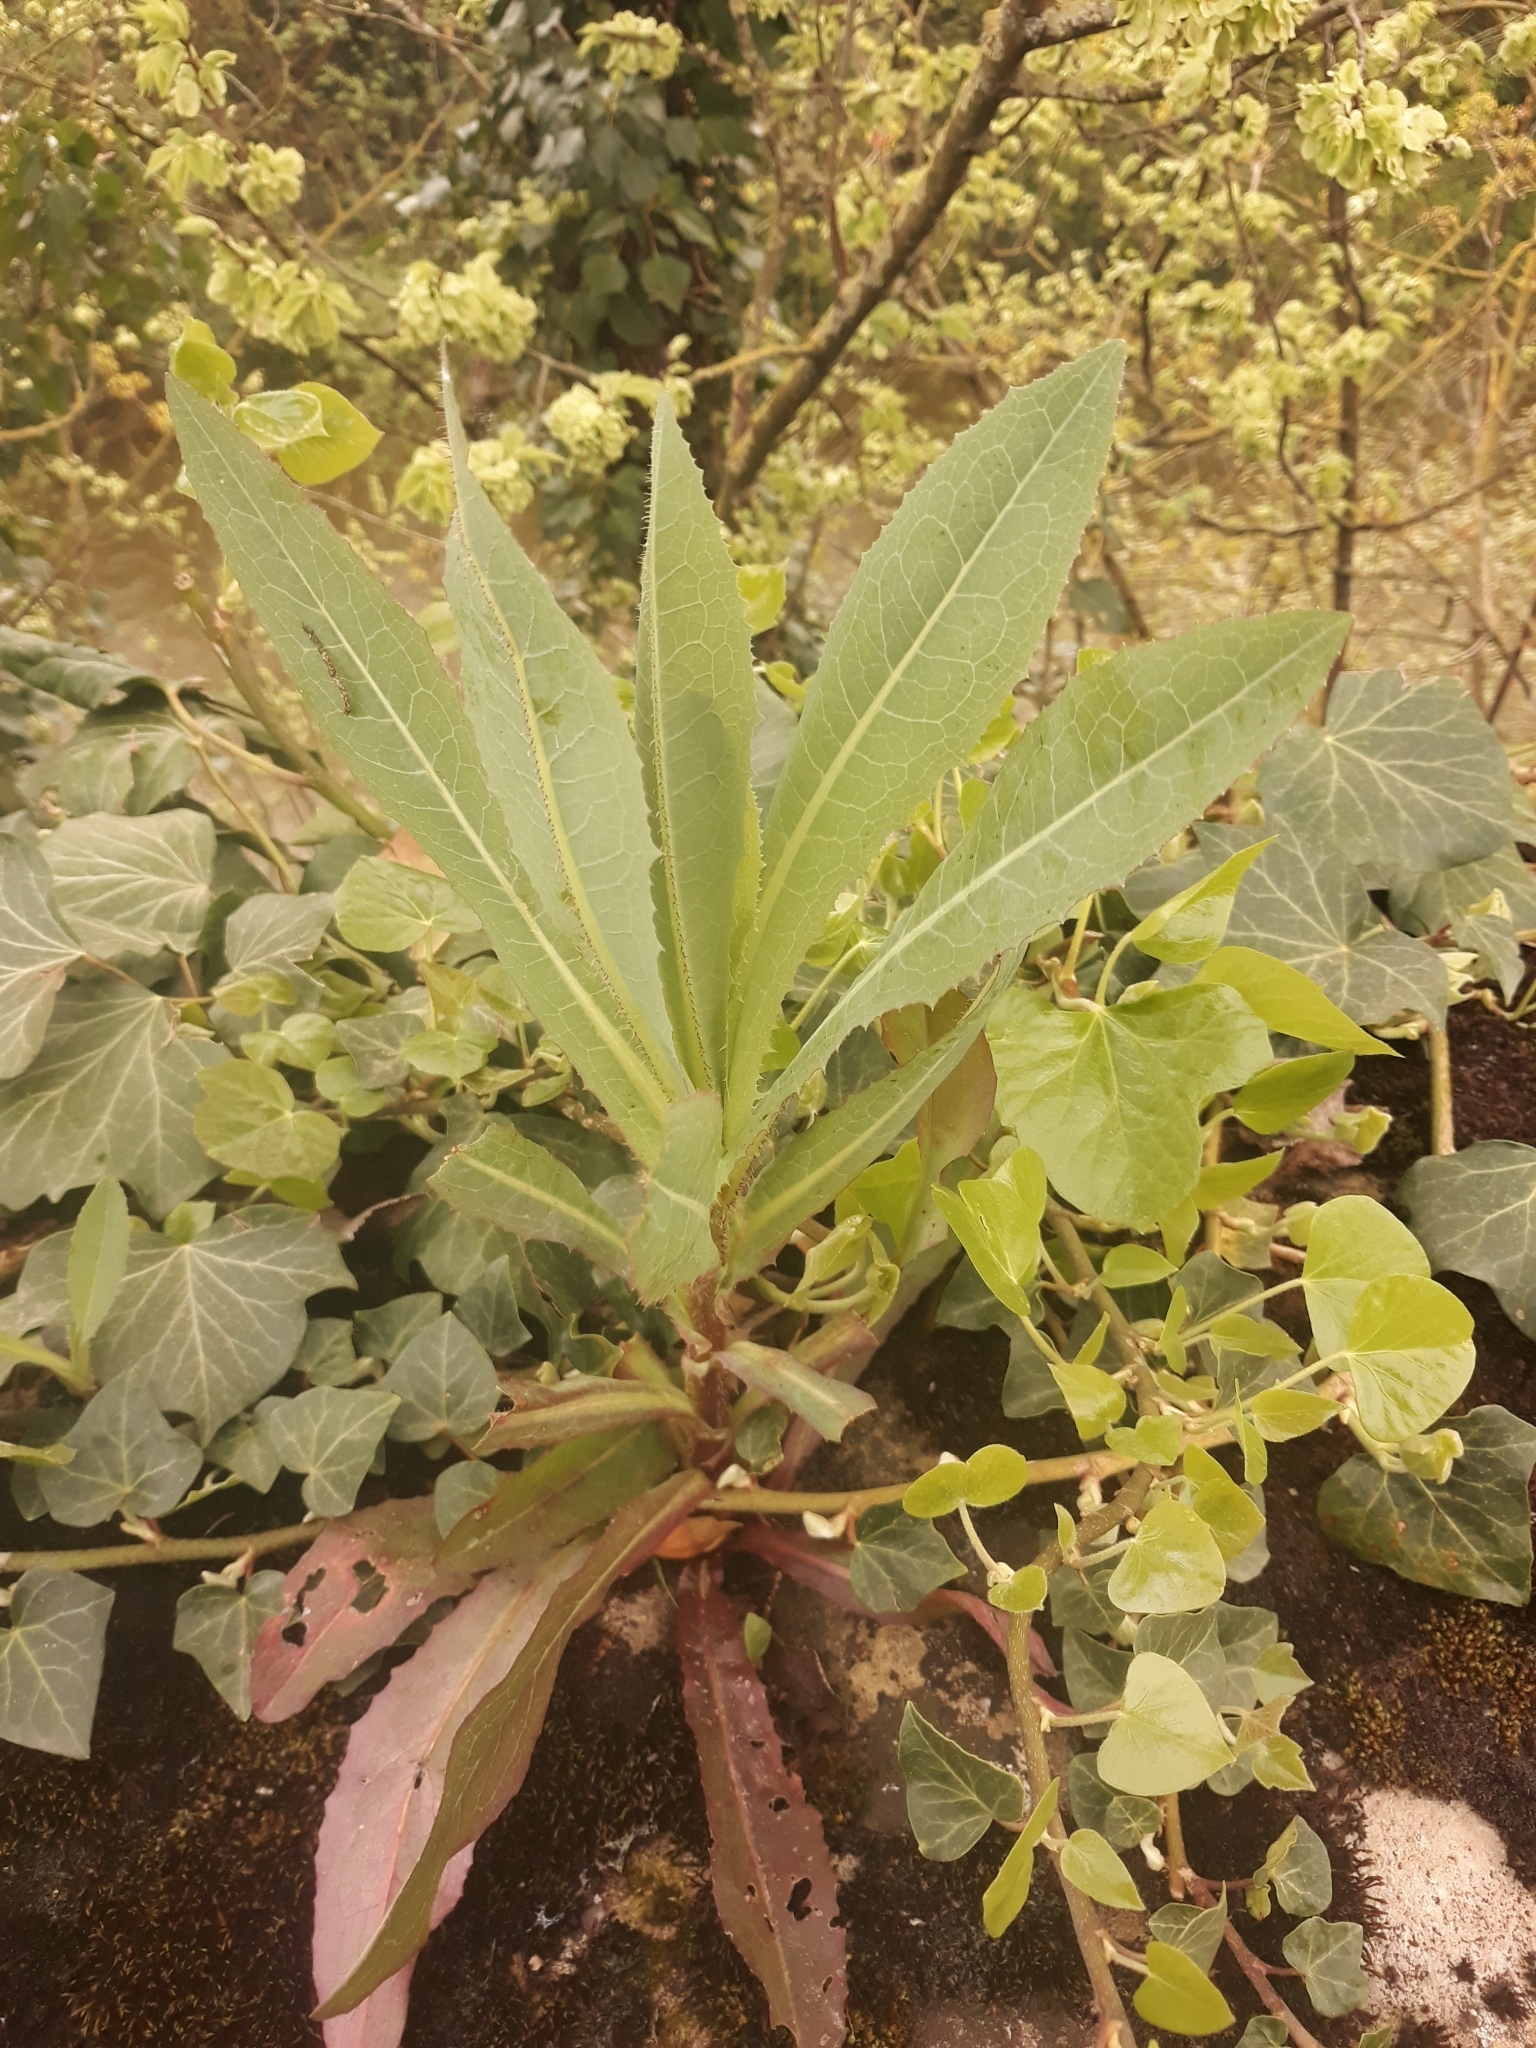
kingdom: Plantae
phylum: Tracheophyta
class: Magnoliopsida
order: Asterales
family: Asteraceae
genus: Lactuca
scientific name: Lactuca serriola
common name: Prickly lettuce
